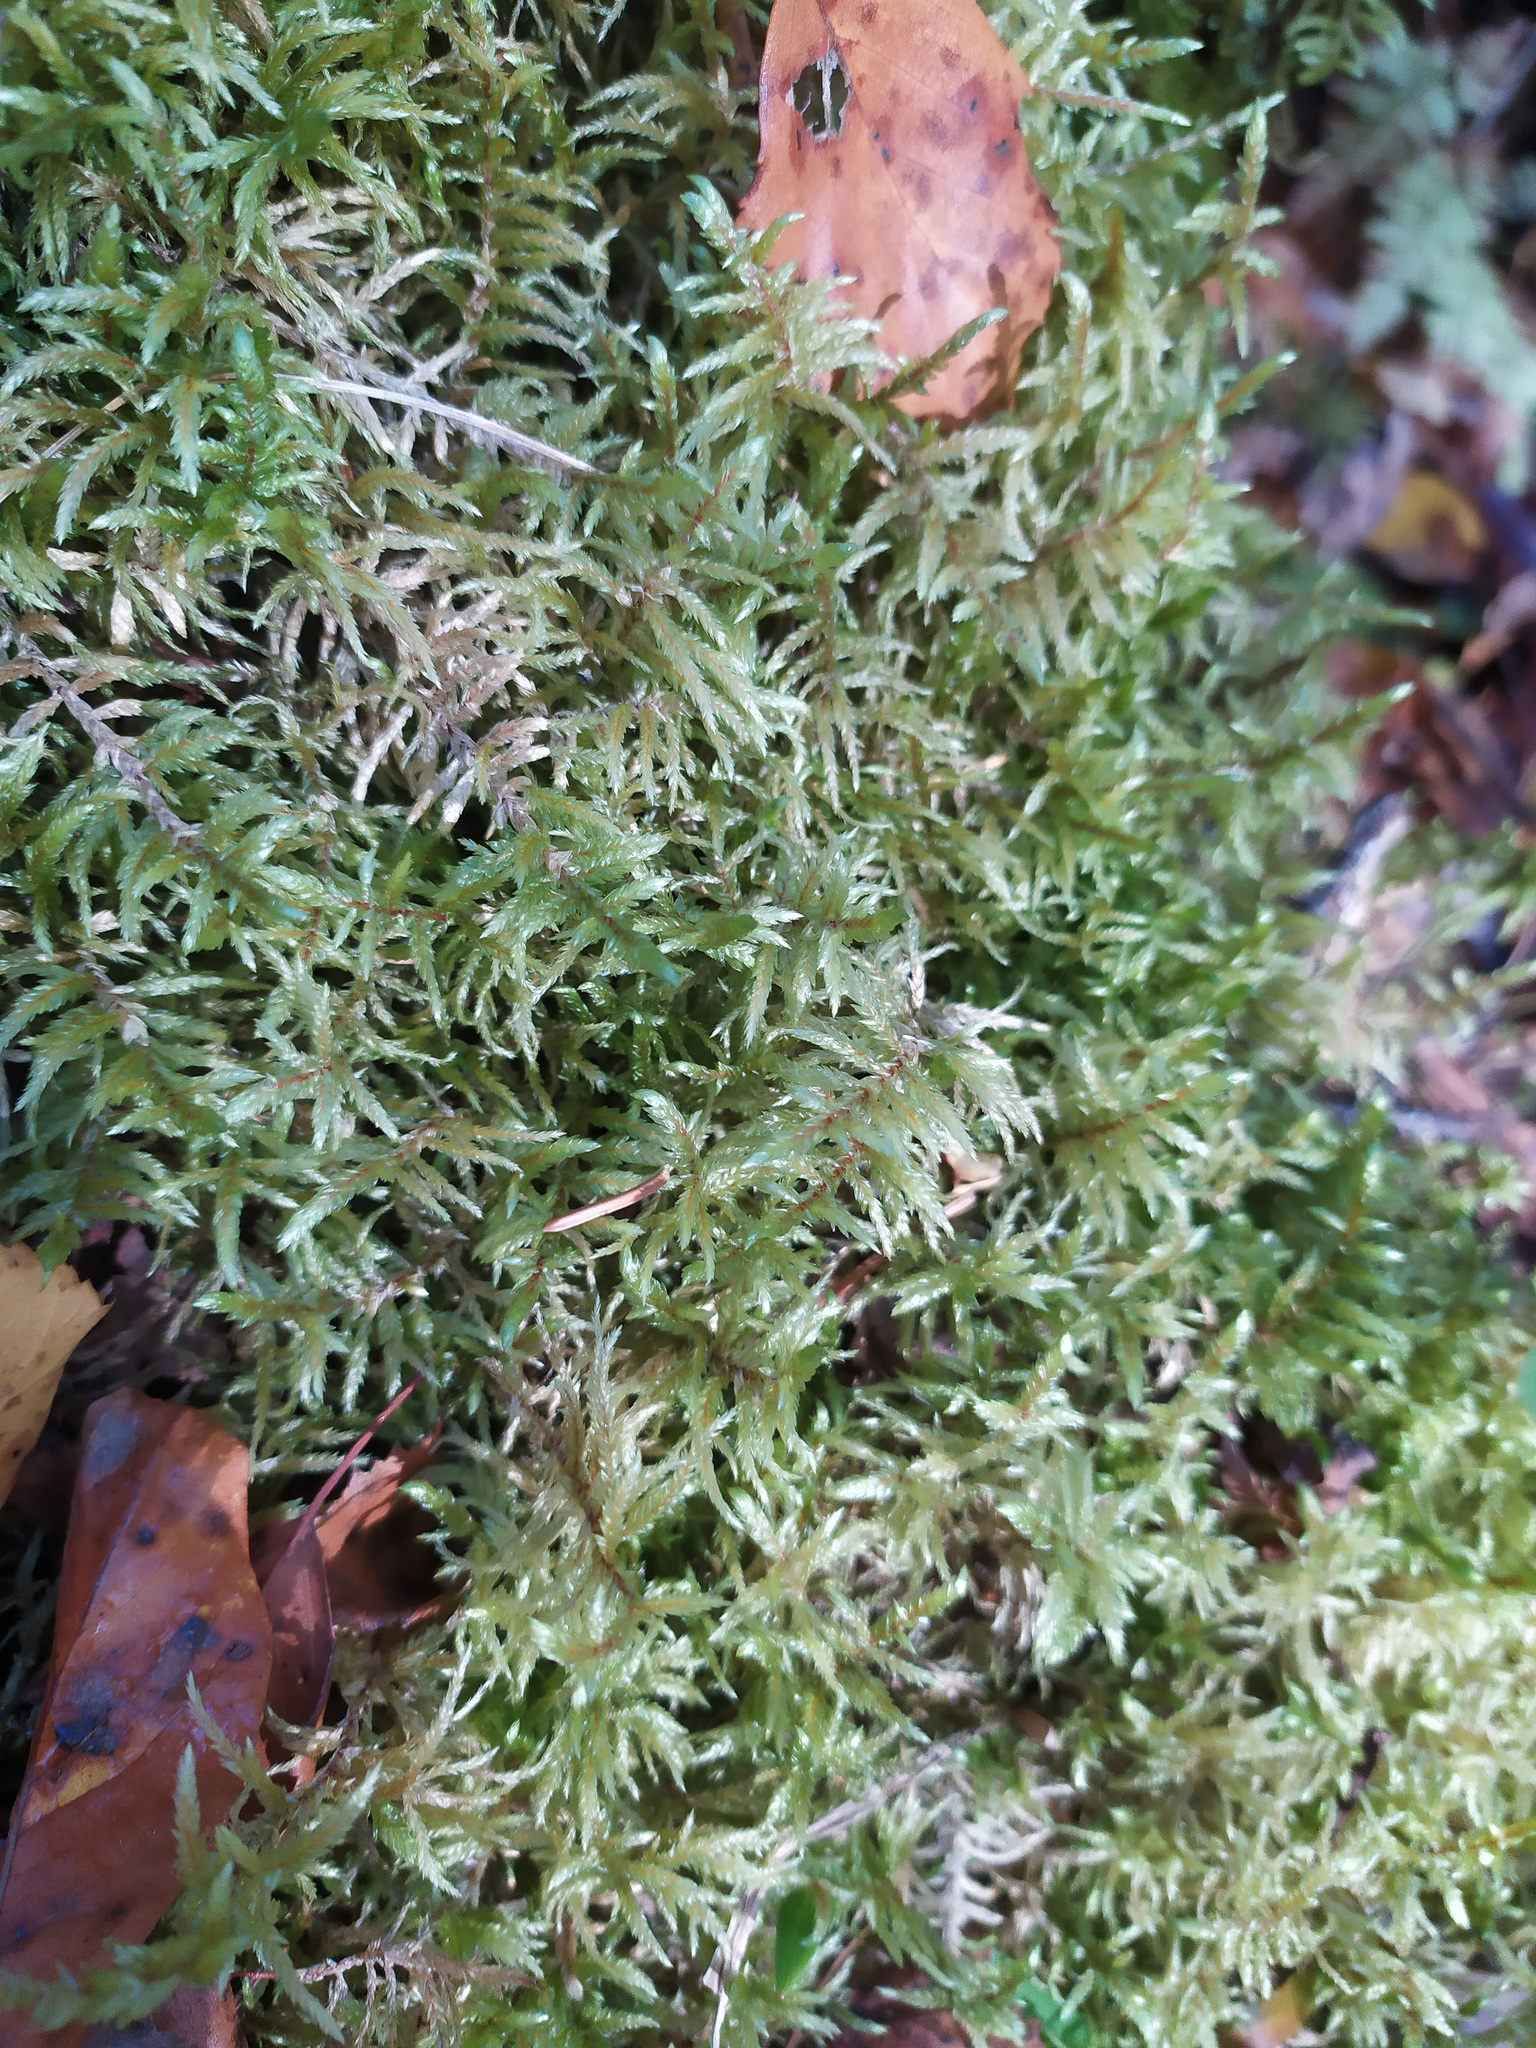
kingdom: Plantae
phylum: Bryophyta
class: Bryopsida
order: Hypnales
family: Hylocomiaceae
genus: Pleurozium
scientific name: Pleurozium schreberi
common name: Red-stemmed feather moss
